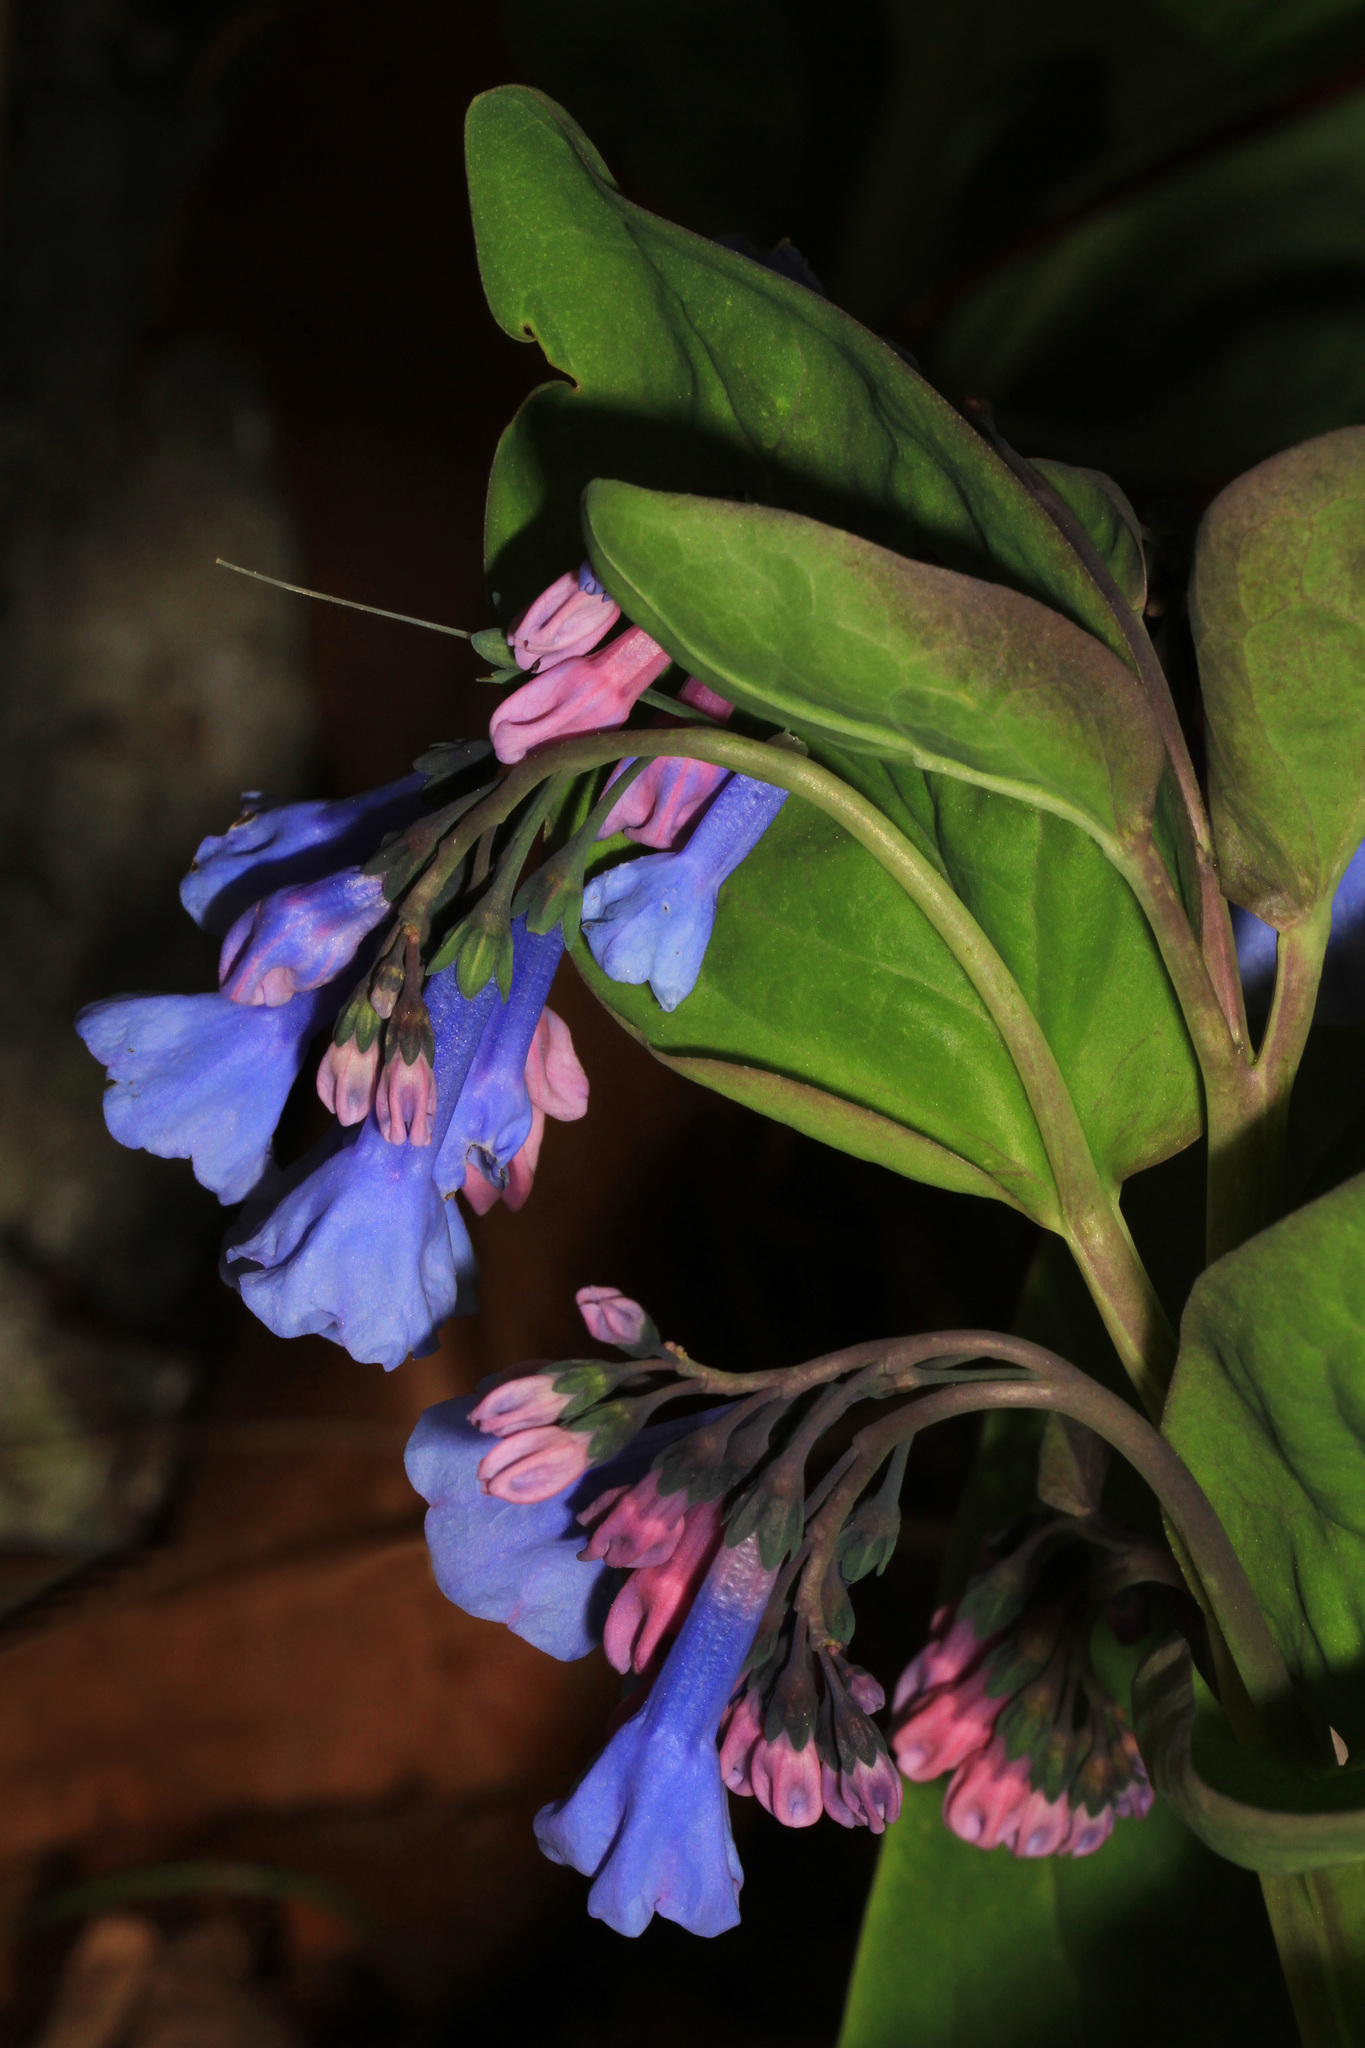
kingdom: Plantae
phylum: Tracheophyta
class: Magnoliopsida
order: Boraginales
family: Boraginaceae
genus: Mertensia
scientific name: Mertensia virginica
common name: Virginia bluebells
